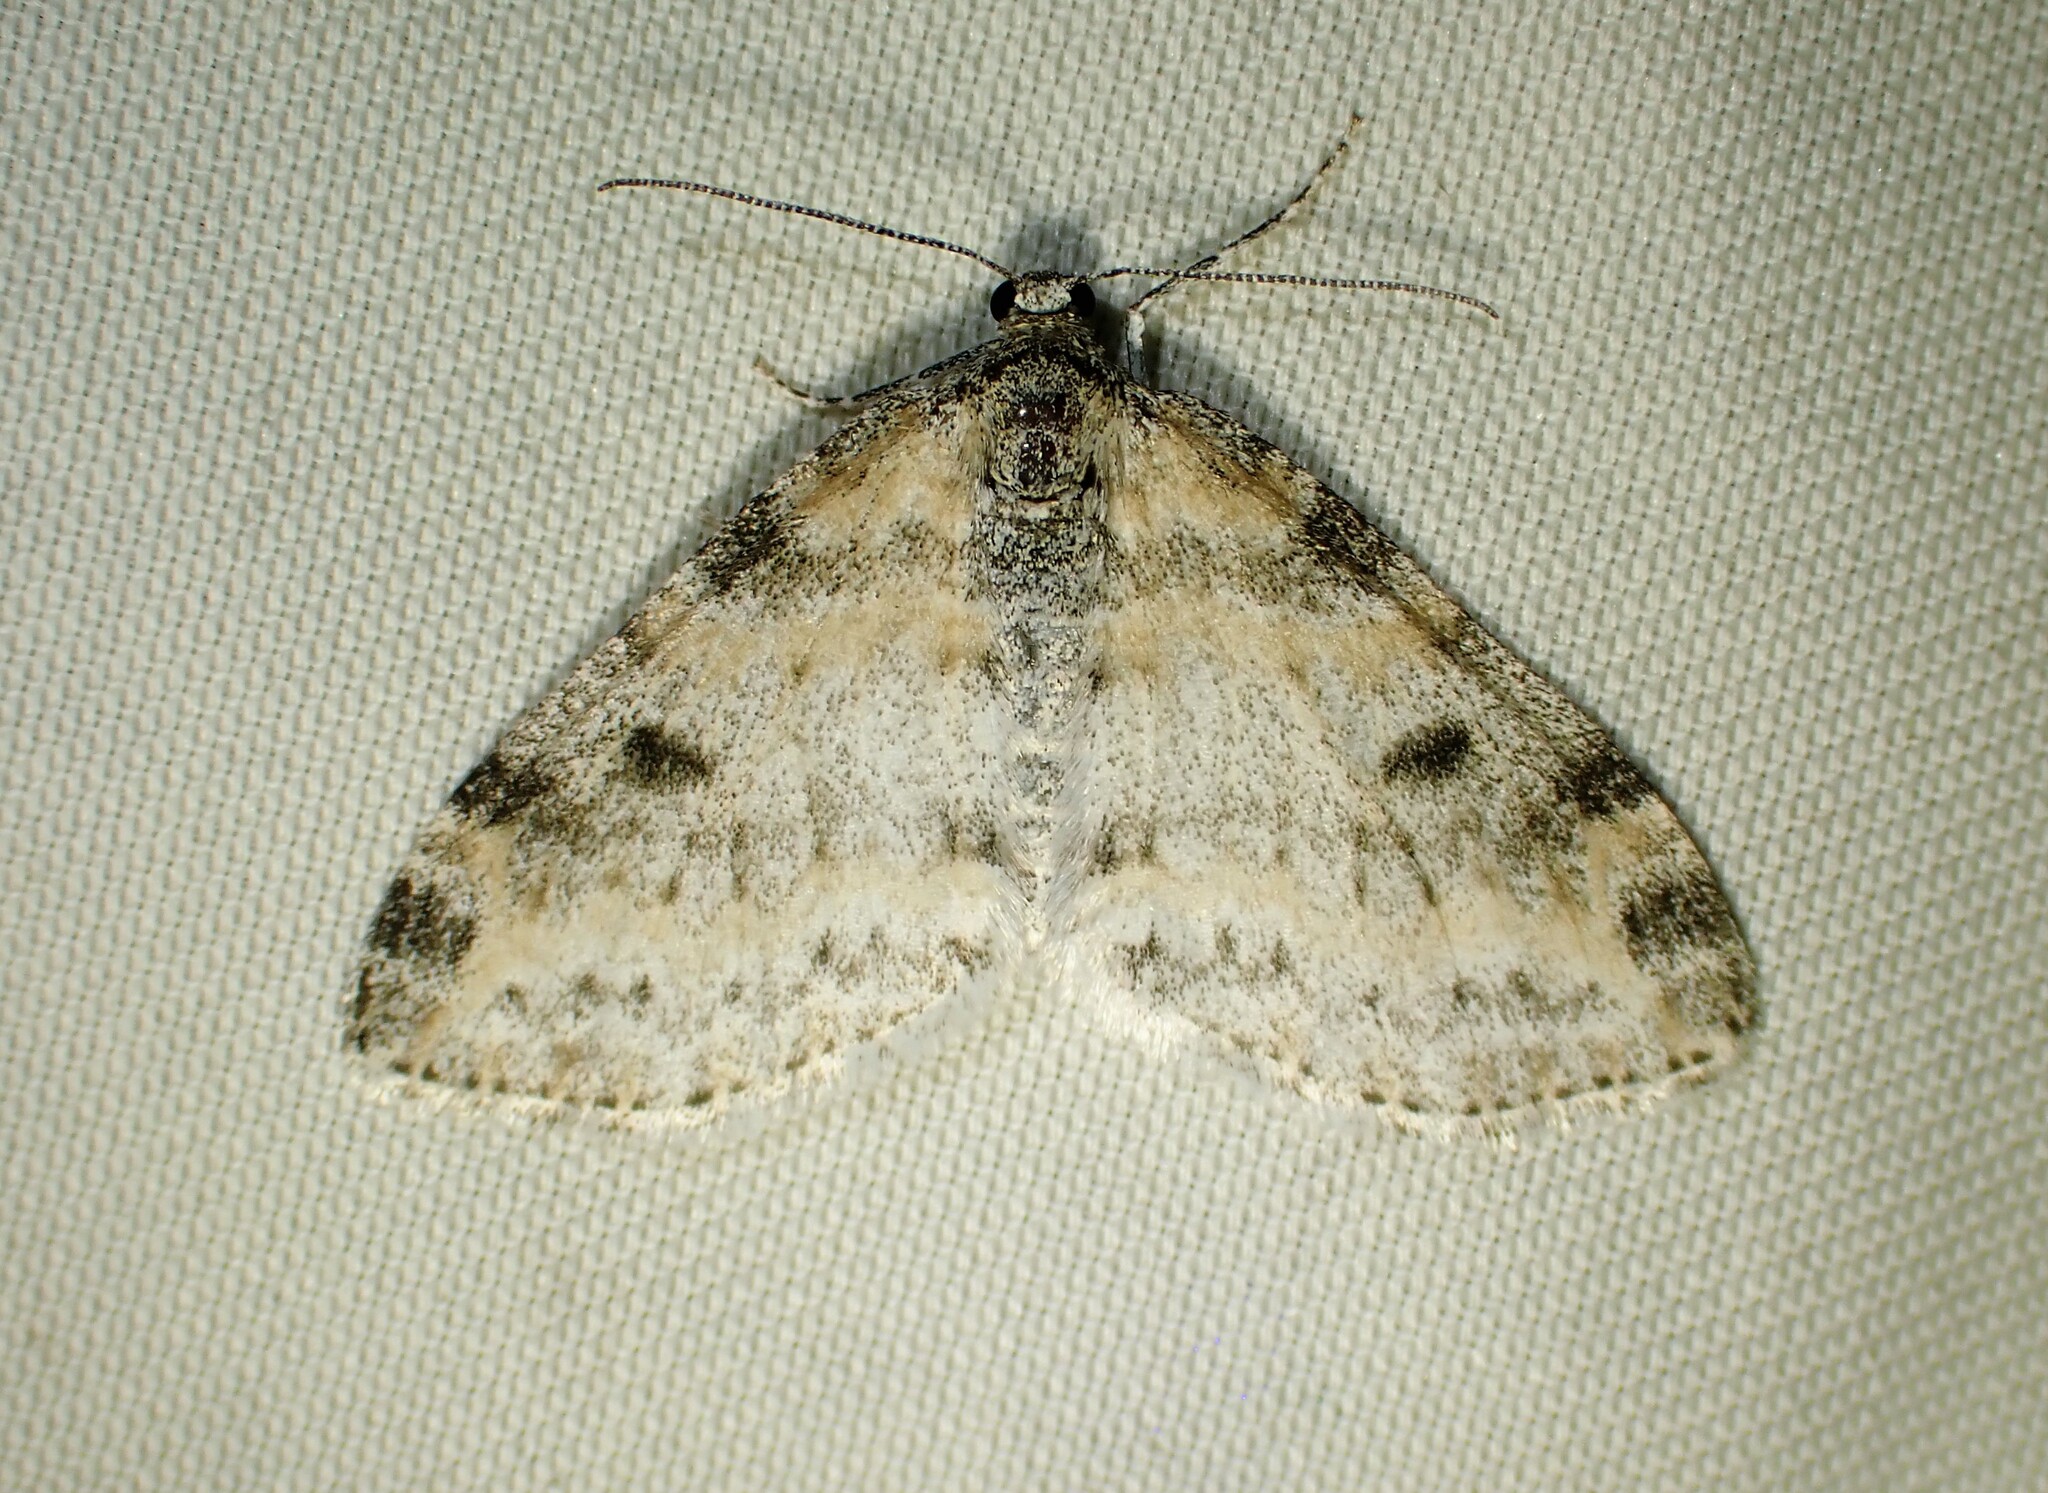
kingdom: Animalia
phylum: Arthropoda
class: Insecta
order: Lepidoptera
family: Geometridae
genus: Lobophora
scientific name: Lobophora nivigerata
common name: Powdered bigwing
